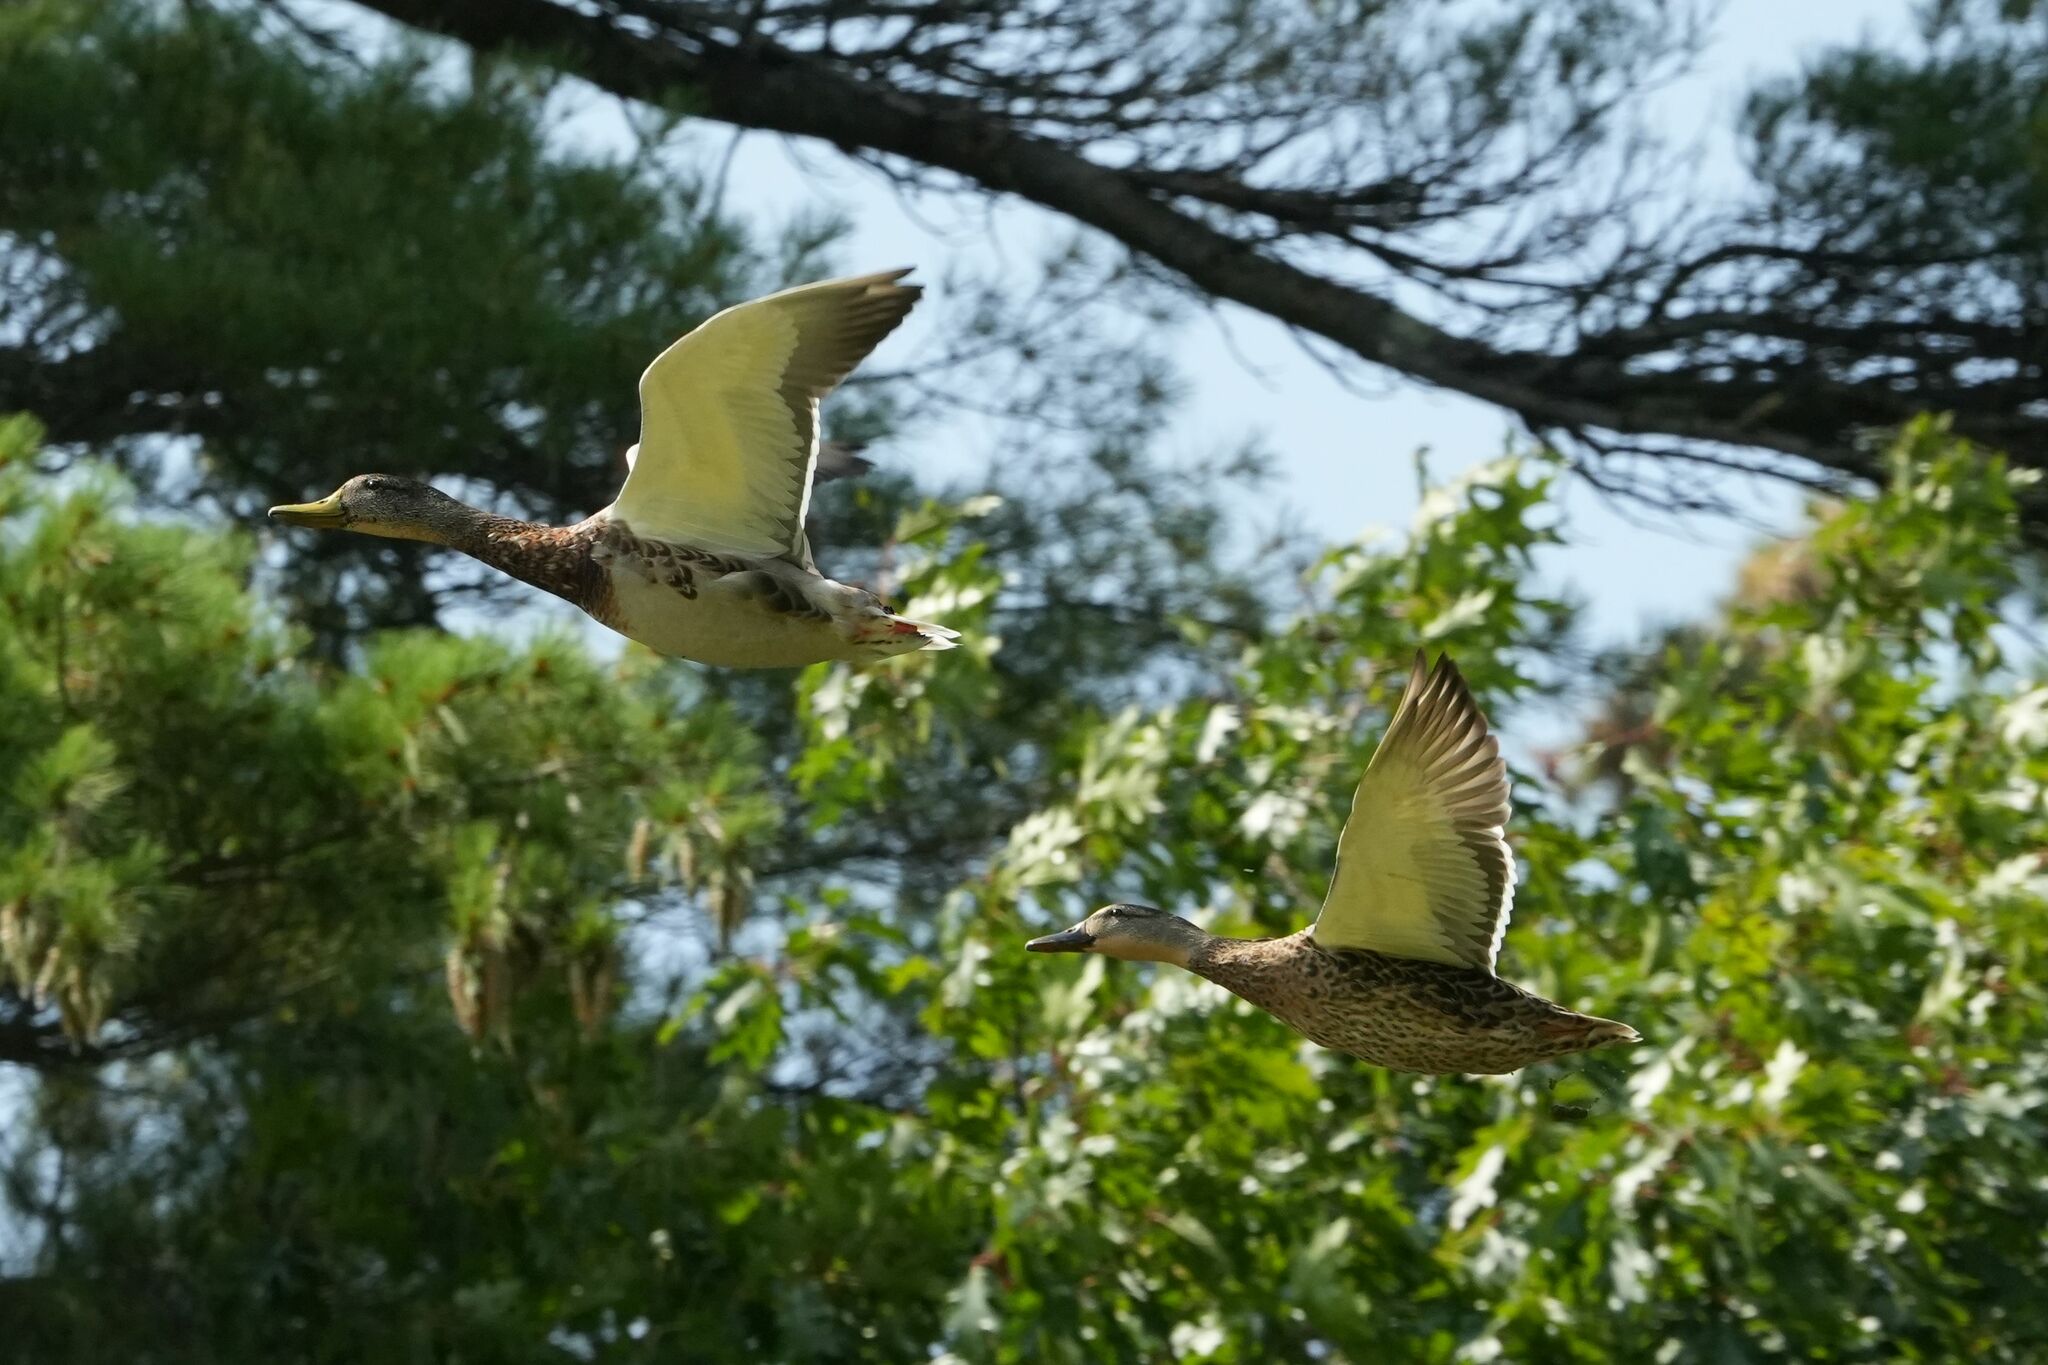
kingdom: Animalia
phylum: Chordata
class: Aves
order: Anseriformes
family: Anatidae
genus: Anas
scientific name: Anas platyrhynchos
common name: Mallard
